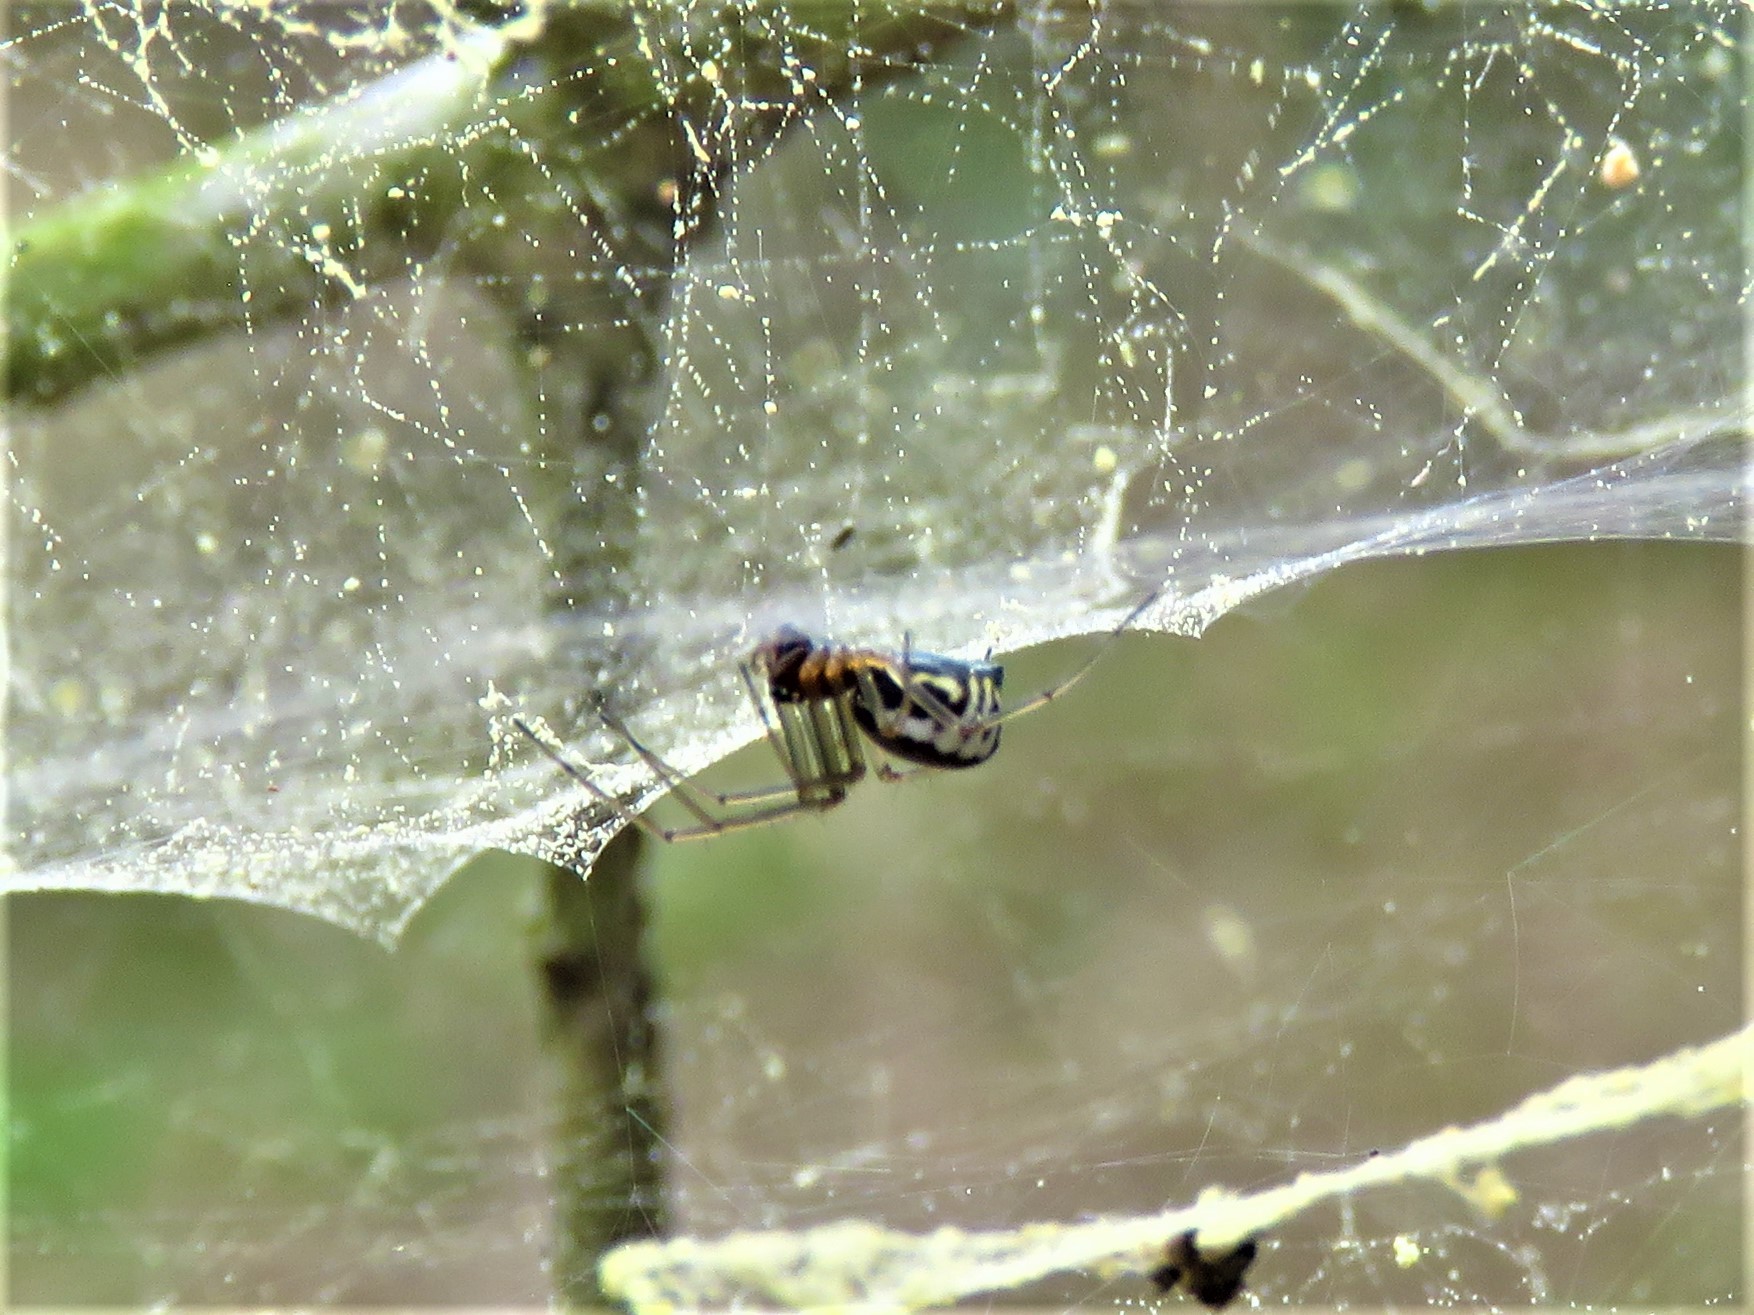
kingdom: Animalia
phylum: Arthropoda
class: Arachnida
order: Araneae
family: Linyphiidae
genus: Neriene
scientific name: Neriene radiata
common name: Filmy dome spider
